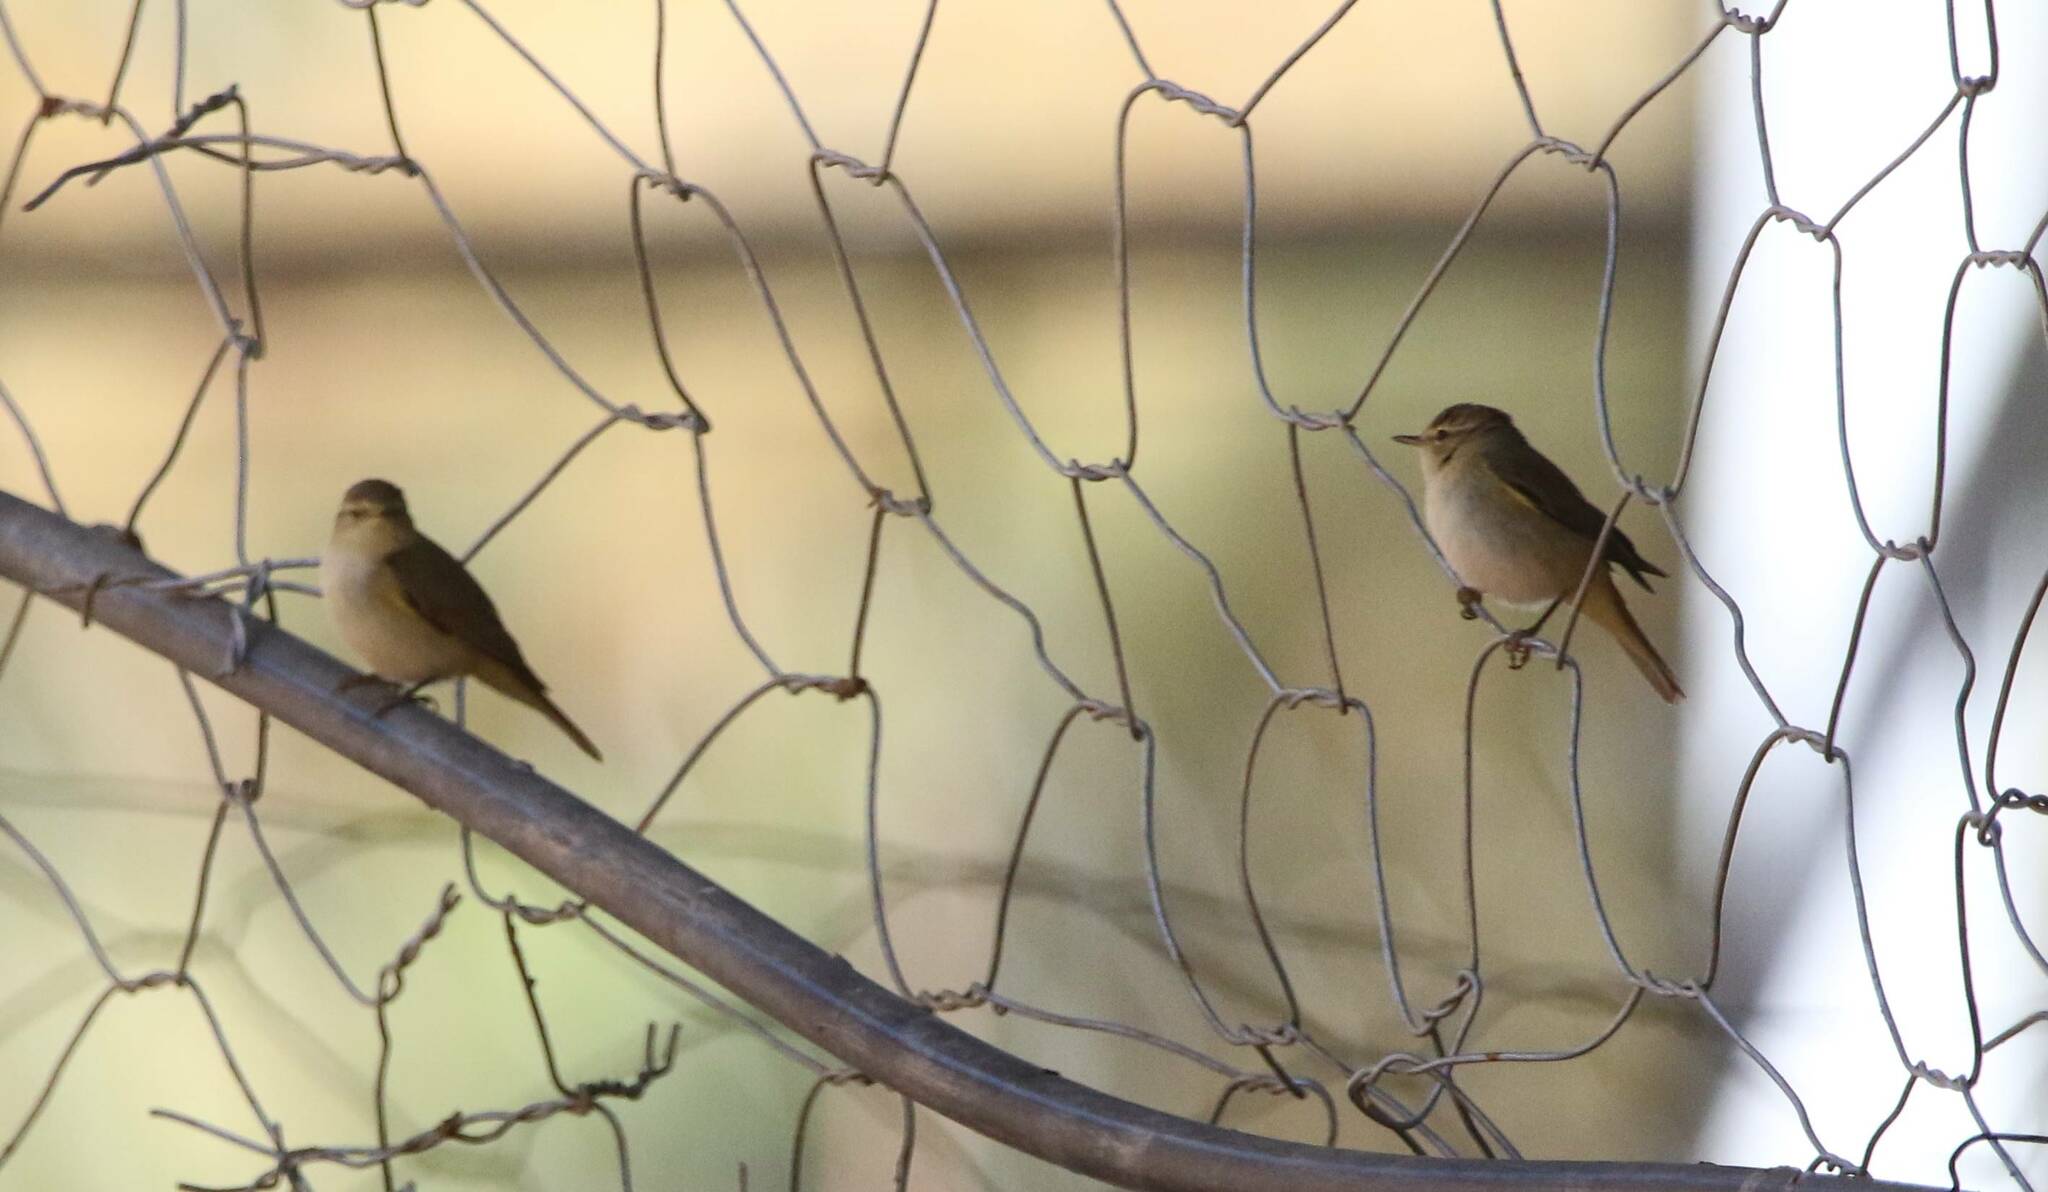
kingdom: Animalia
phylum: Chordata
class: Aves
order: Passeriformes
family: Phylloscopidae
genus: Phylloscopus
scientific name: Phylloscopus collybita
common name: Common chiffchaff
